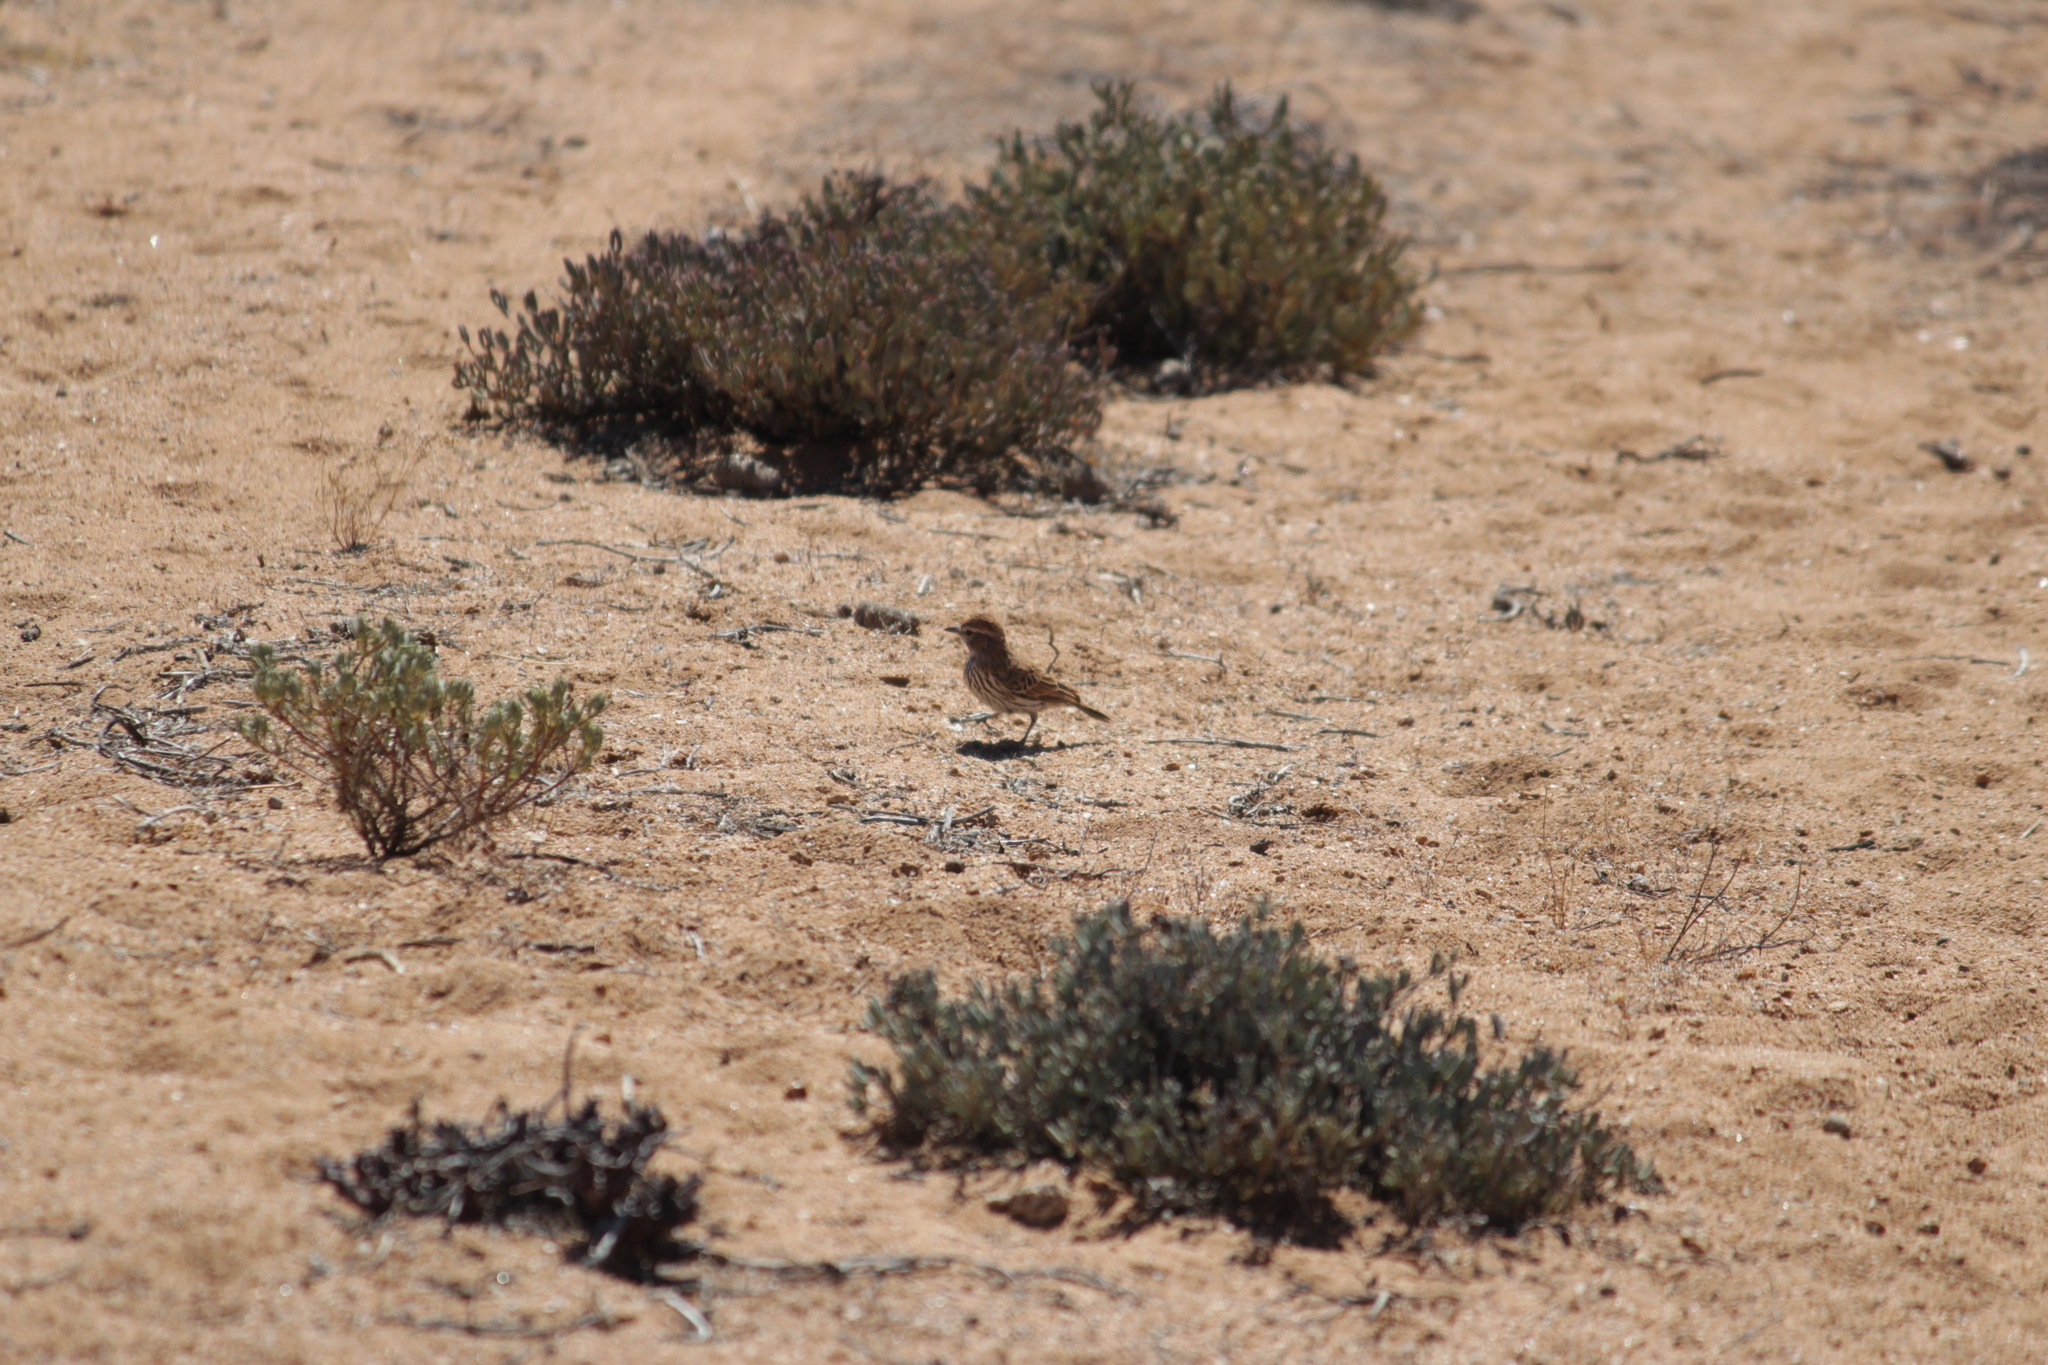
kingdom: Animalia
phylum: Chordata
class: Aves
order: Passeriformes
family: Alaudidae
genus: Calendulauda
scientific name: Calendulauda albescens
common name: Karoo lark
